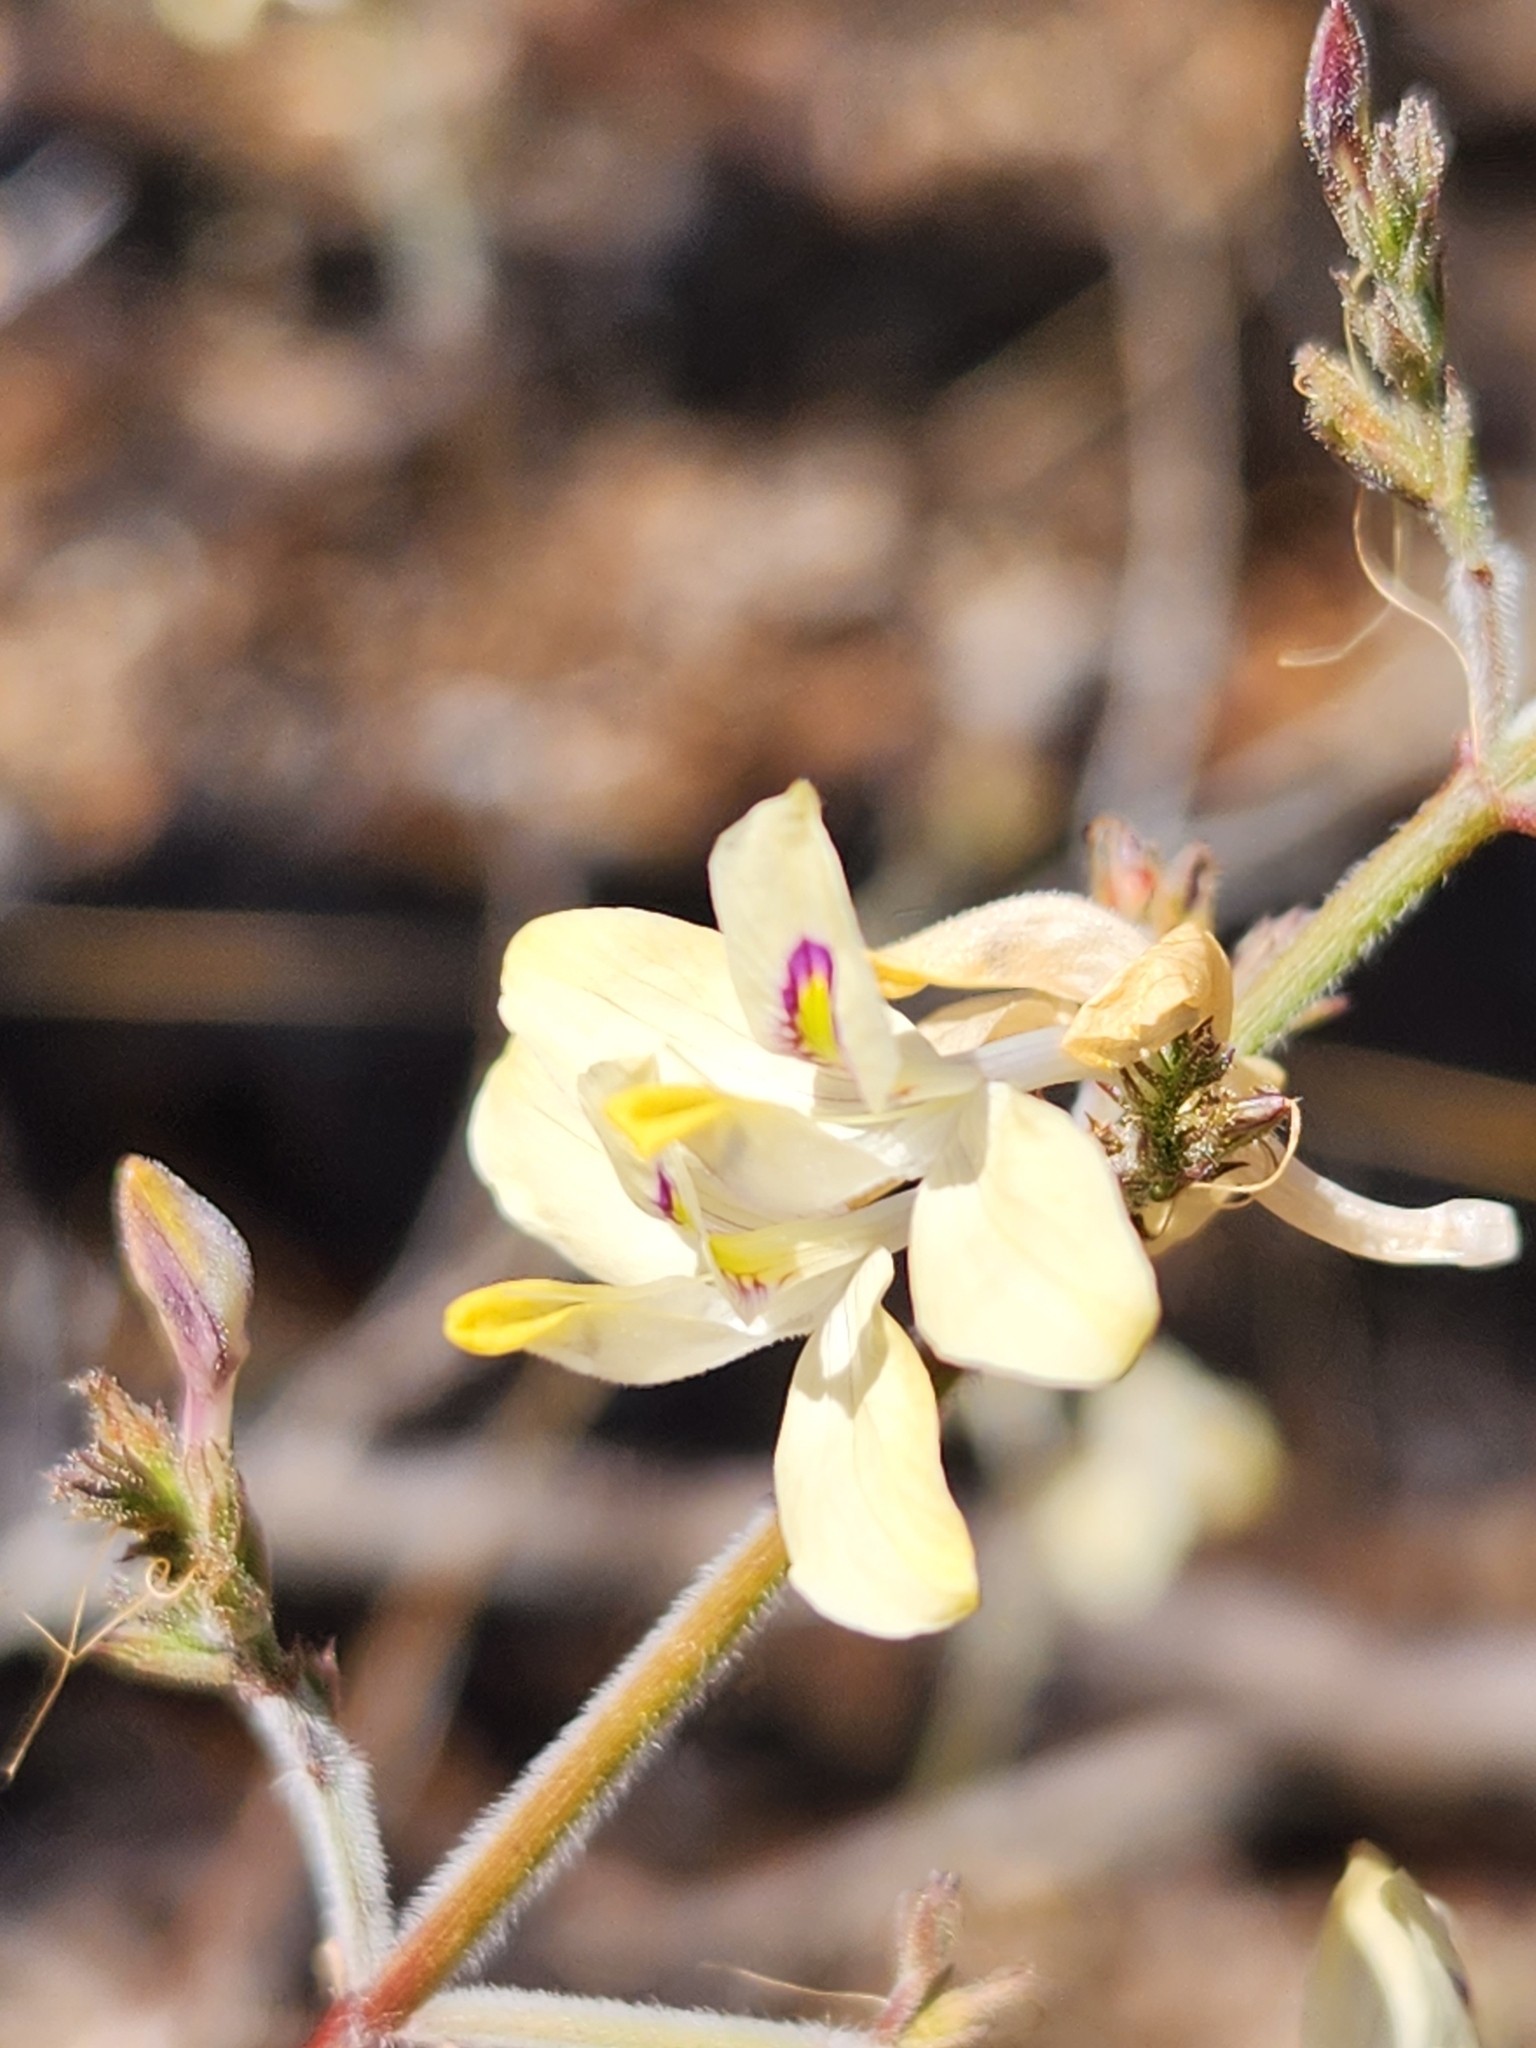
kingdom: Plantae
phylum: Tracheophyta
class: Magnoliopsida
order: Lamiales
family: Acanthaceae
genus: Carlowrightia
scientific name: Carlowrightia arizonica
